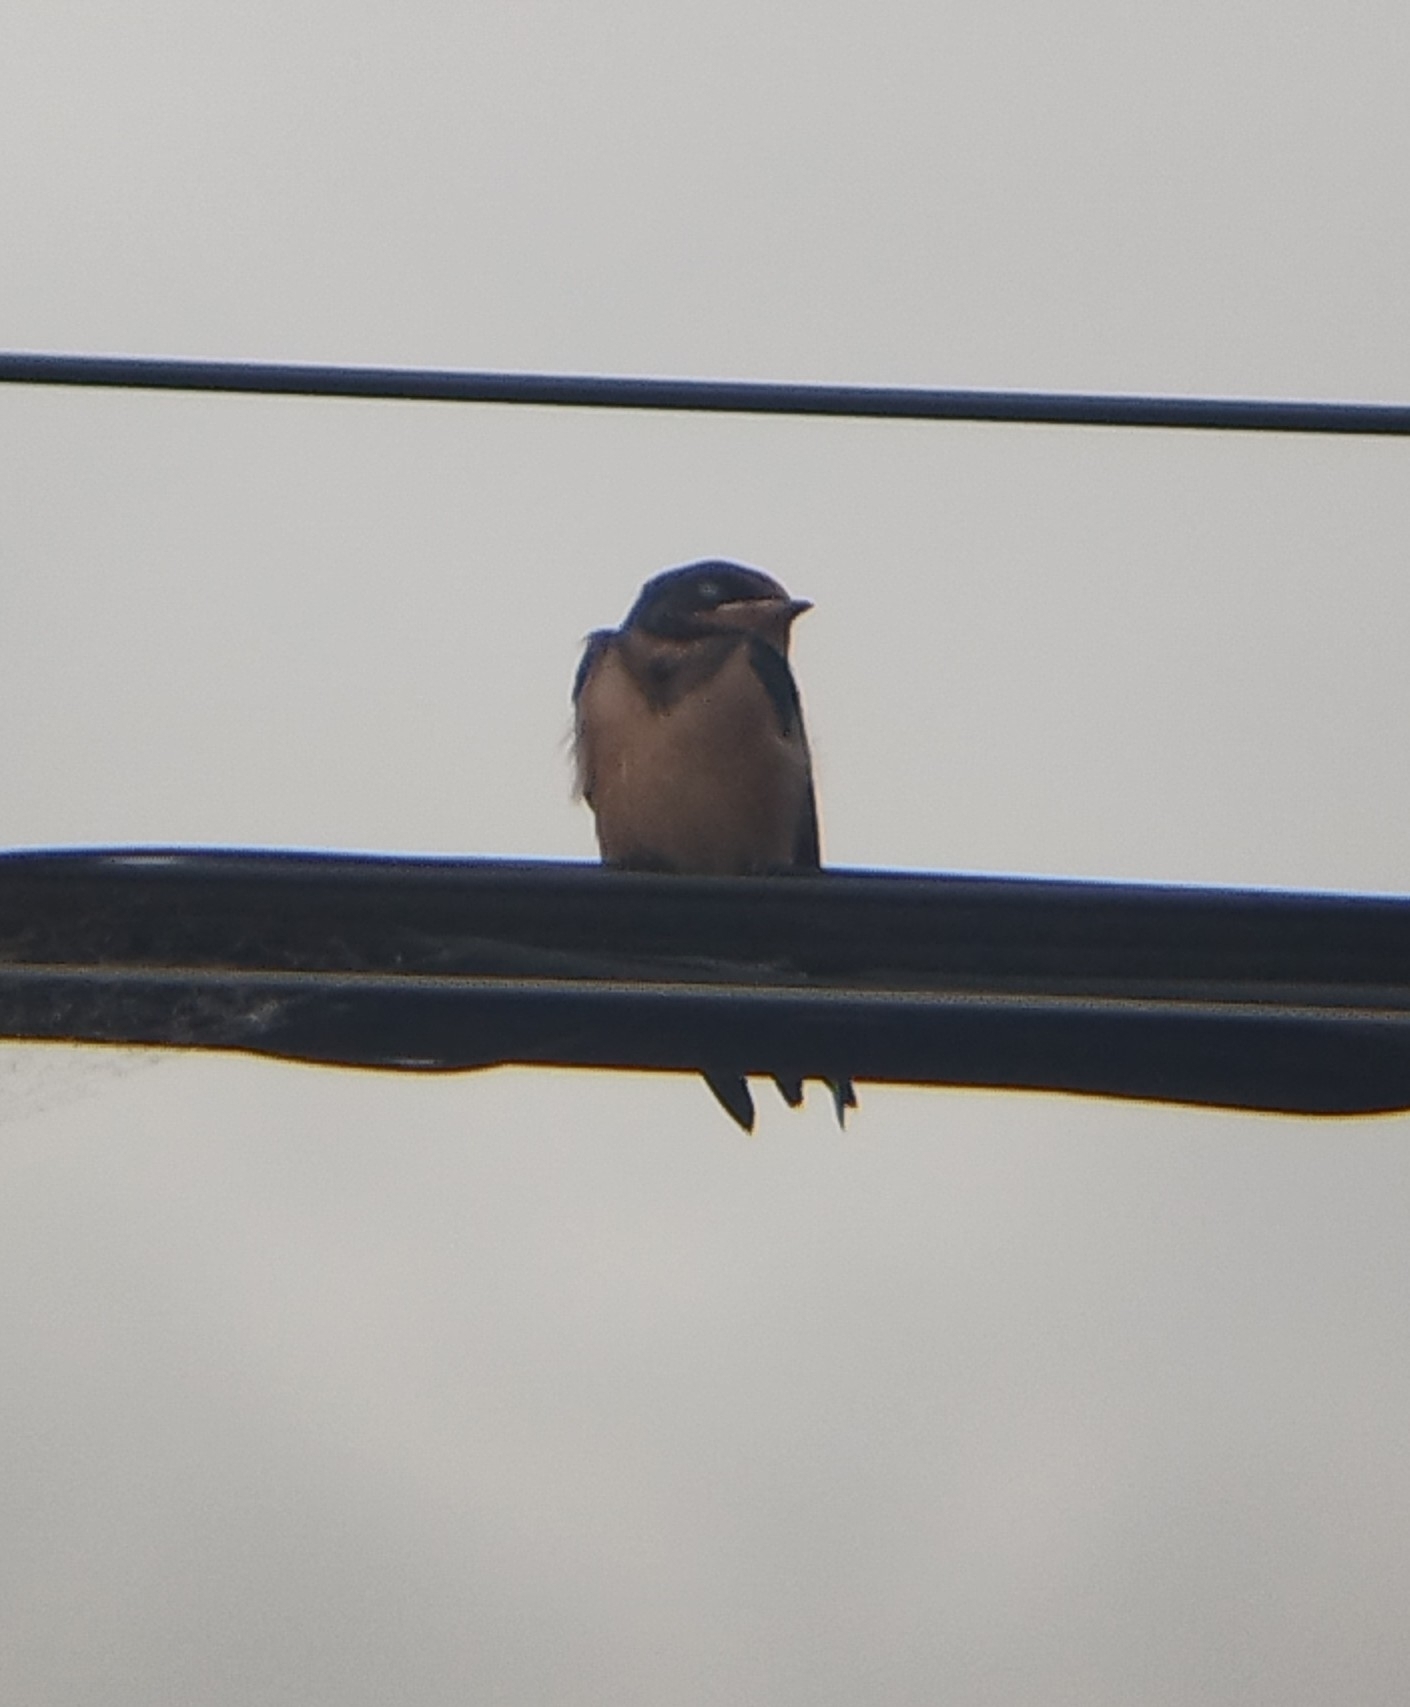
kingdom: Animalia
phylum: Chordata
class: Aves
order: Passeriformes
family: Hirundinidae
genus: Hirundo
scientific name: Hirundo rustica
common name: Barn swallow
